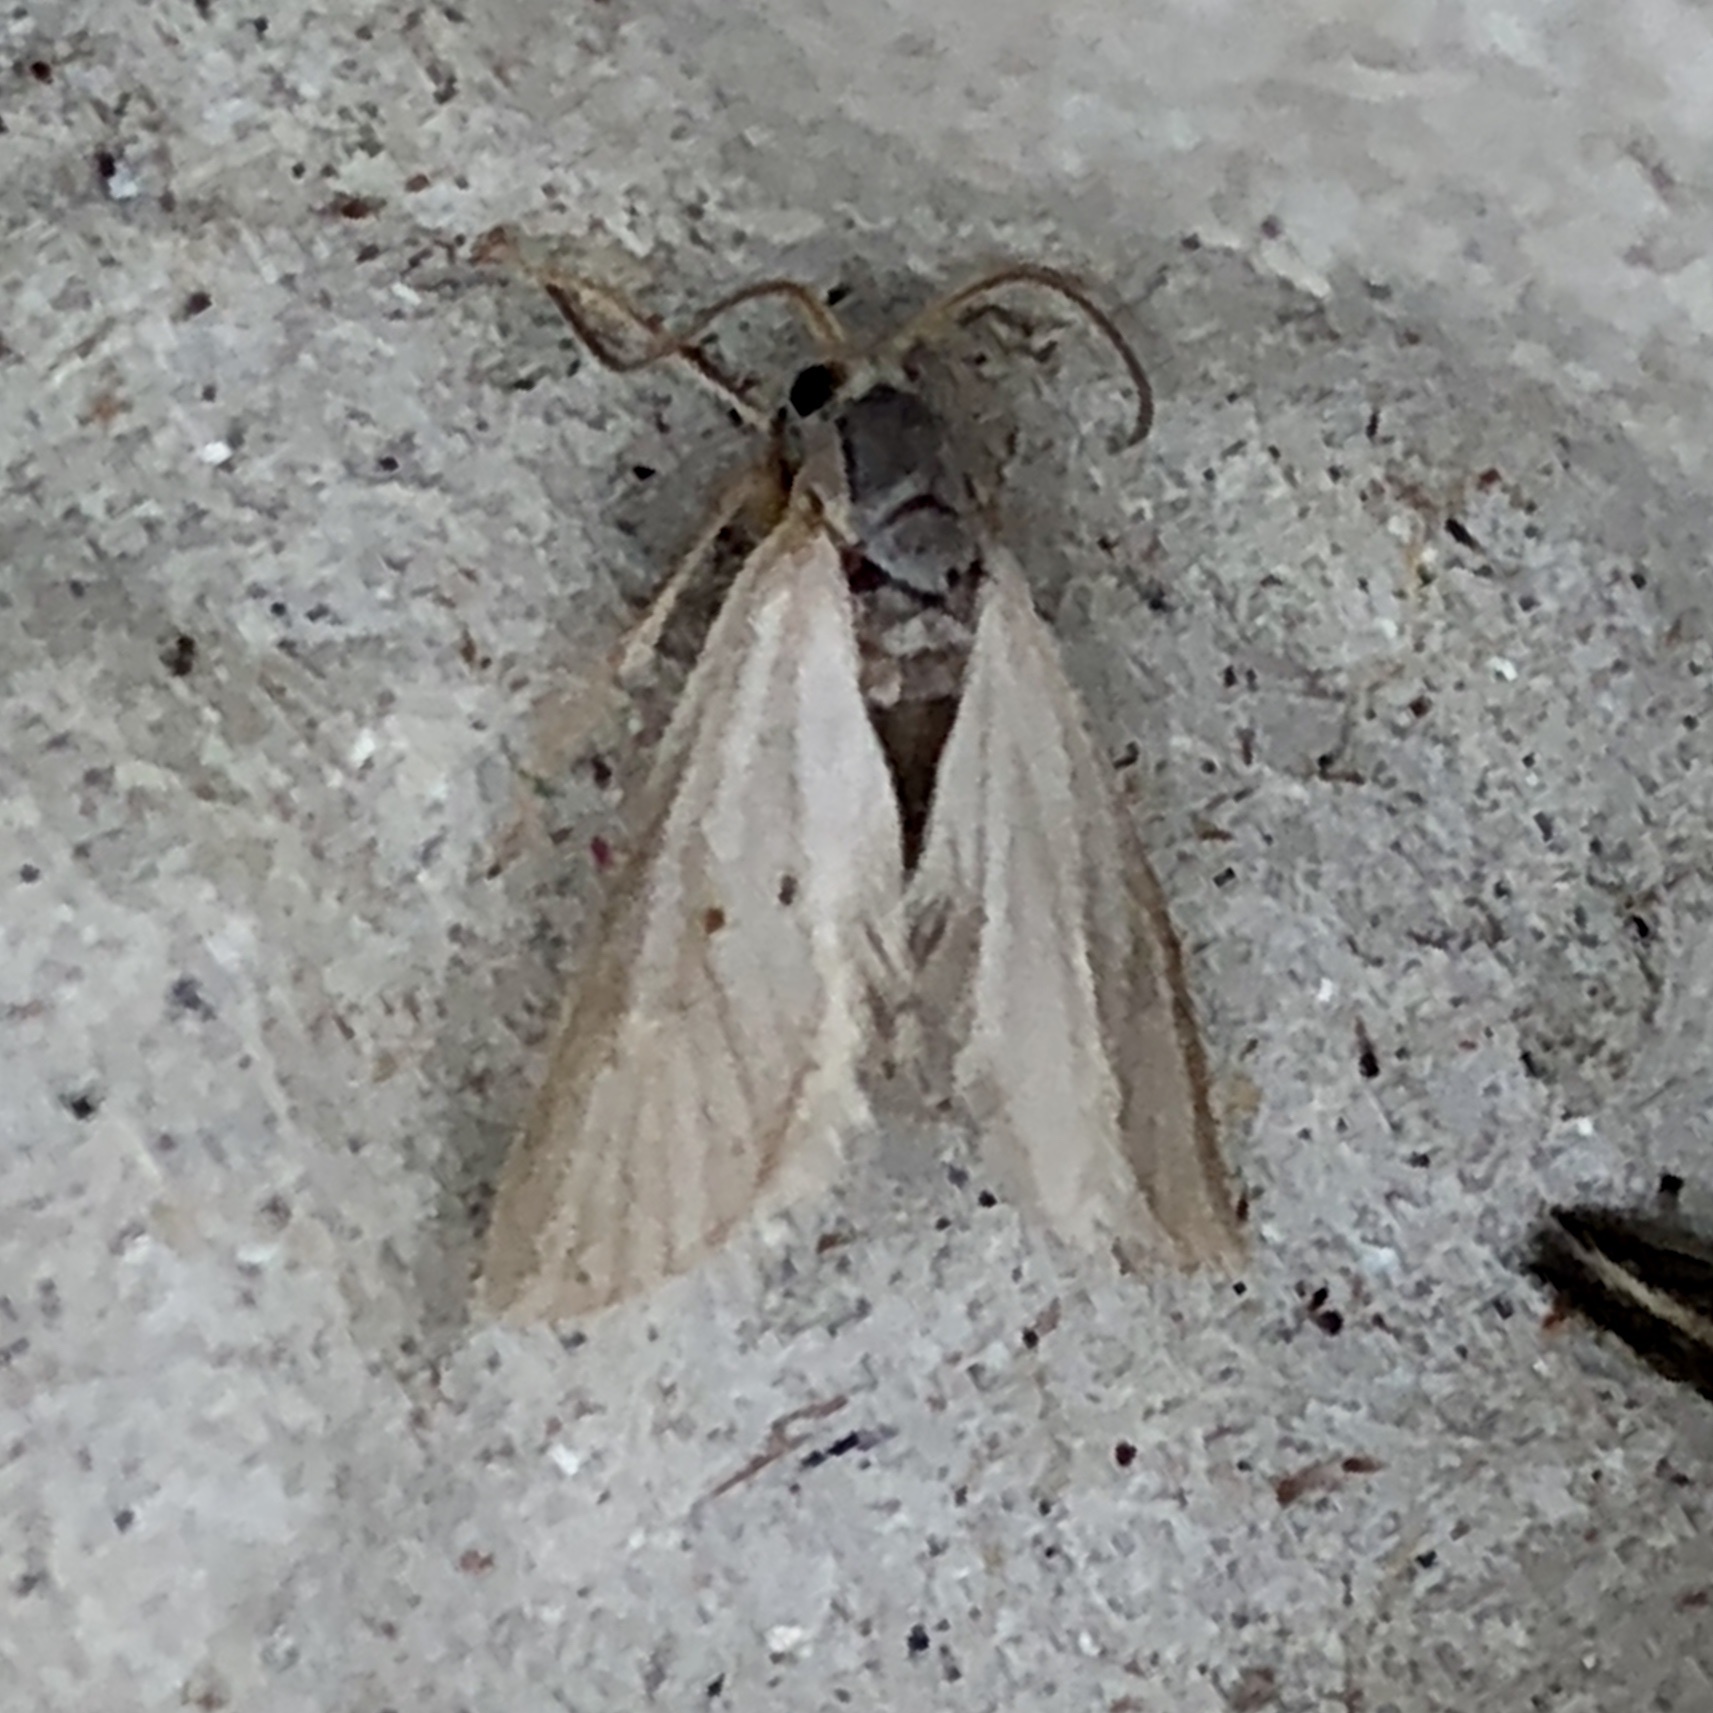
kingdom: Animalia
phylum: Arthropoda
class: Insecta
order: Lepidoptera
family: Crambidae
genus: Acentria
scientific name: Acentria ephemerella
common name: European water moth
